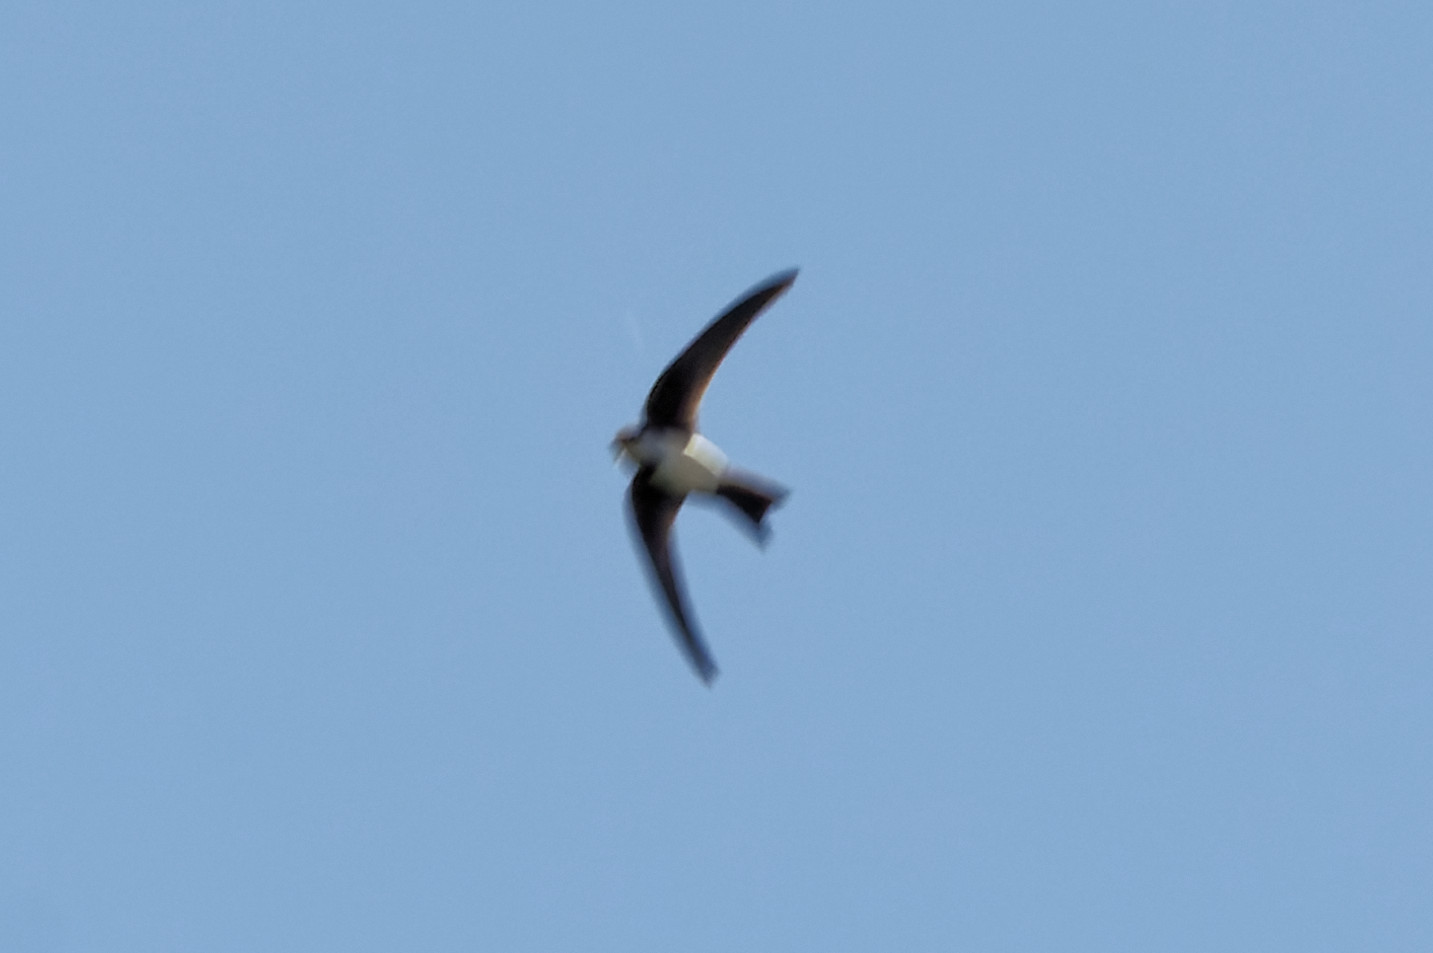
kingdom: Animalia
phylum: Chordata
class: Aves
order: Apodiformes
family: Apodidae
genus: Tachymarptis
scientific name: Tachymarptis melba
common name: Alpine swift
